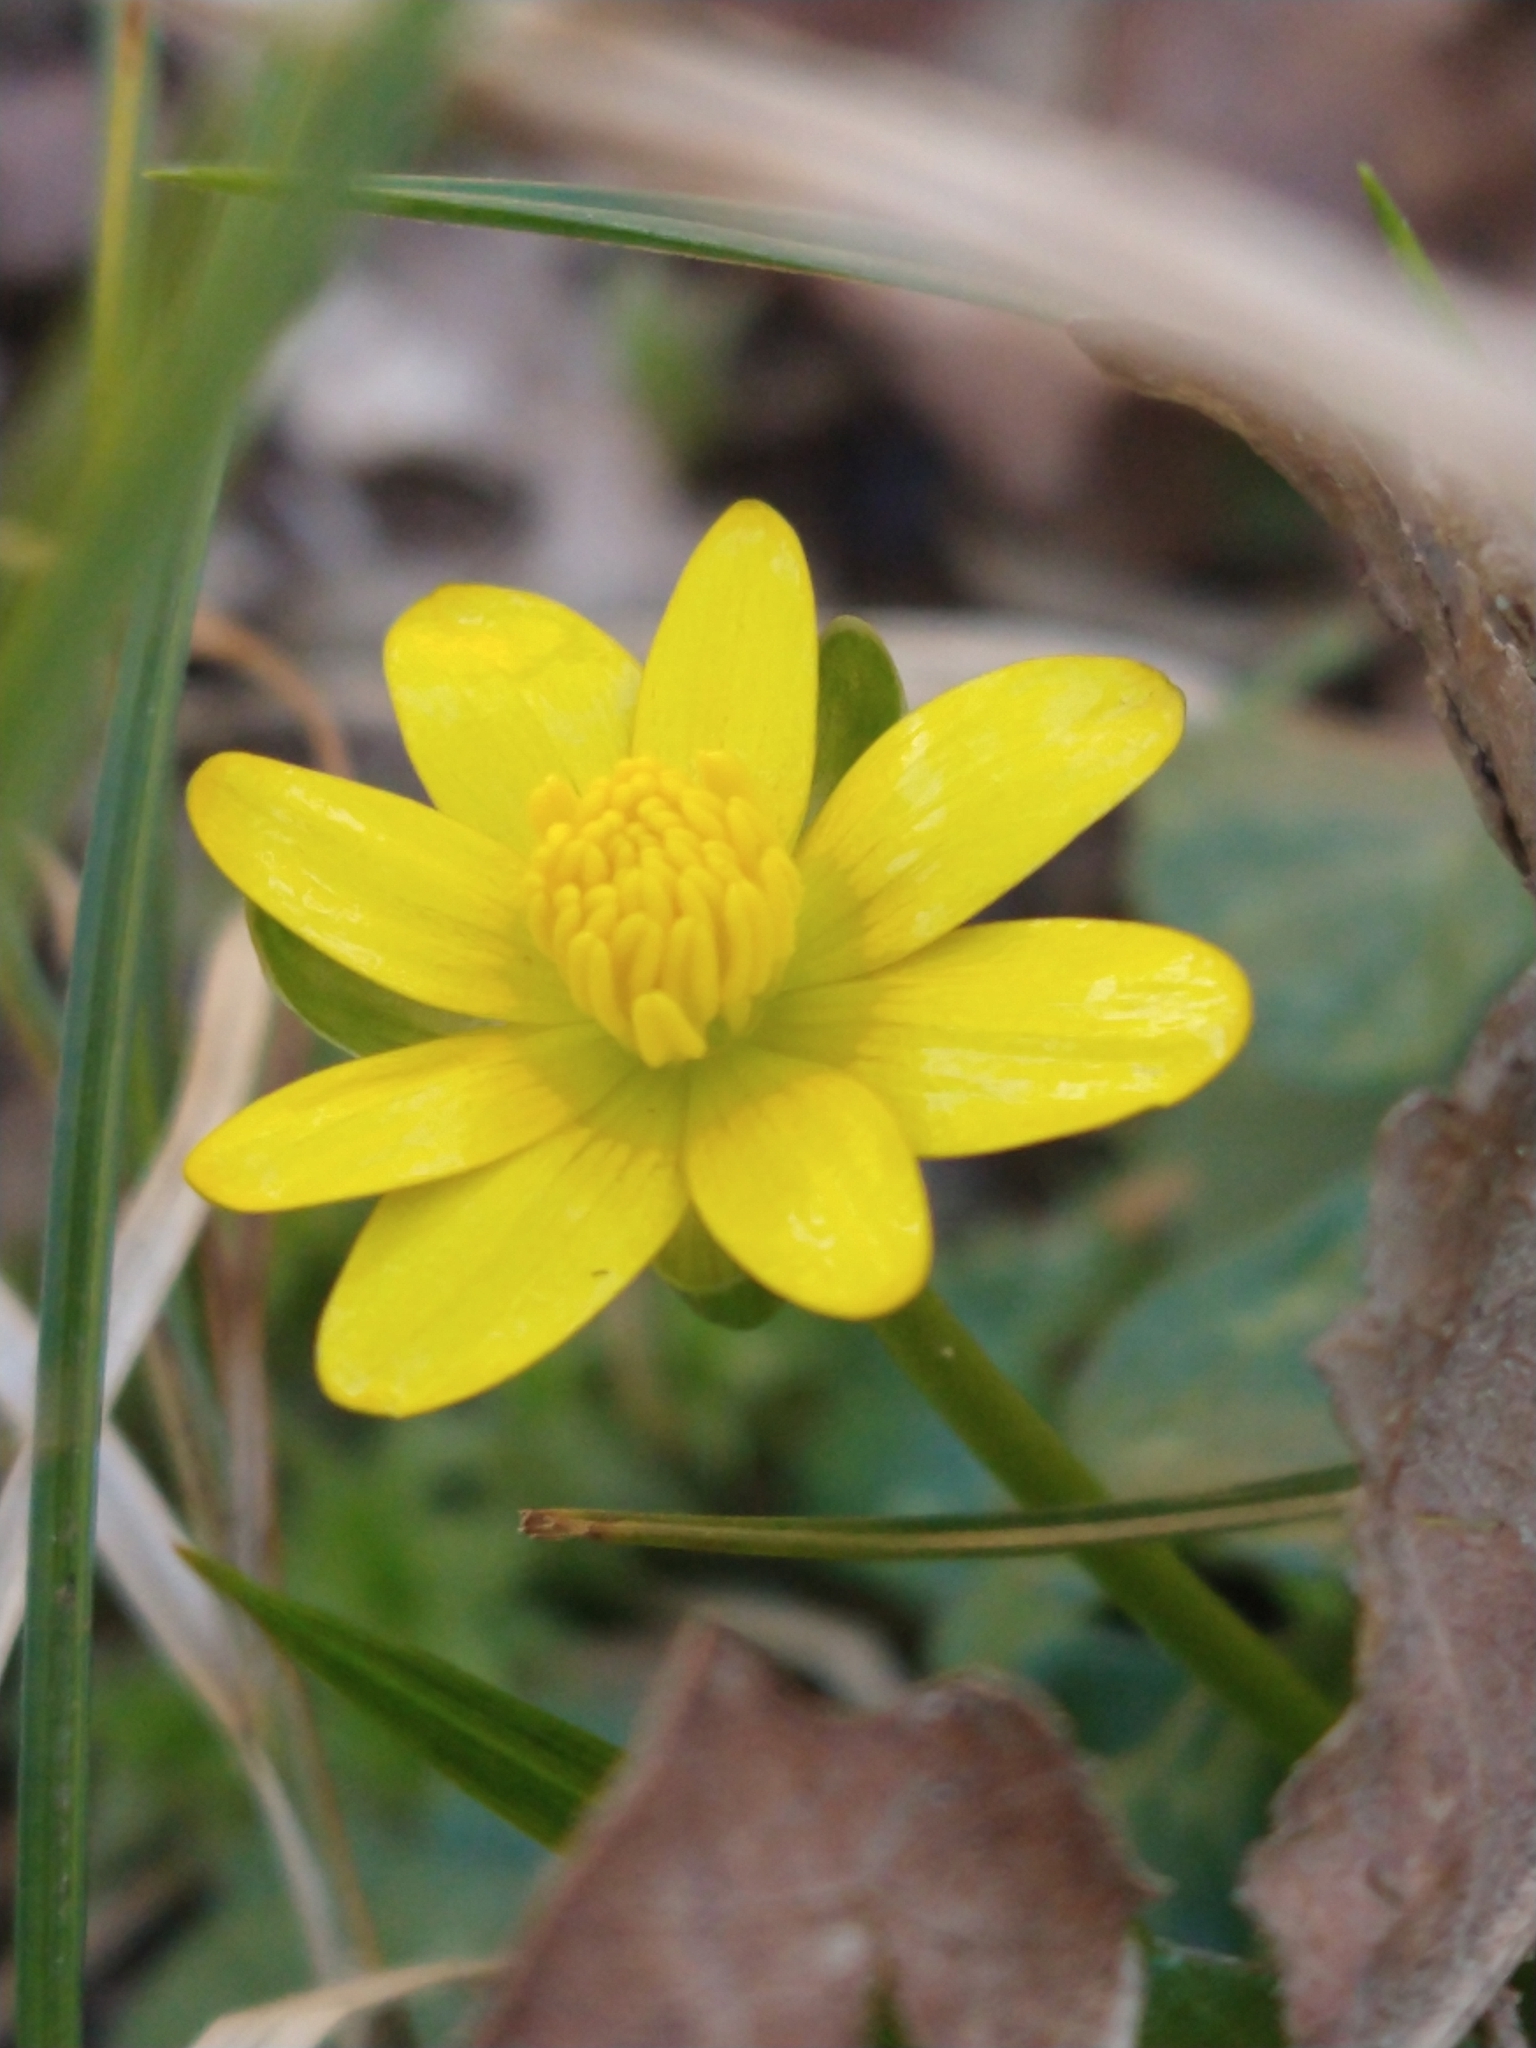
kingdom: Plantae
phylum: Tracheophyta
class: Magnoliopsida
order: Ranunculales
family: Ranunculaceae
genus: Ficaria
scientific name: Ficaria verna
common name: Lesser celandine
